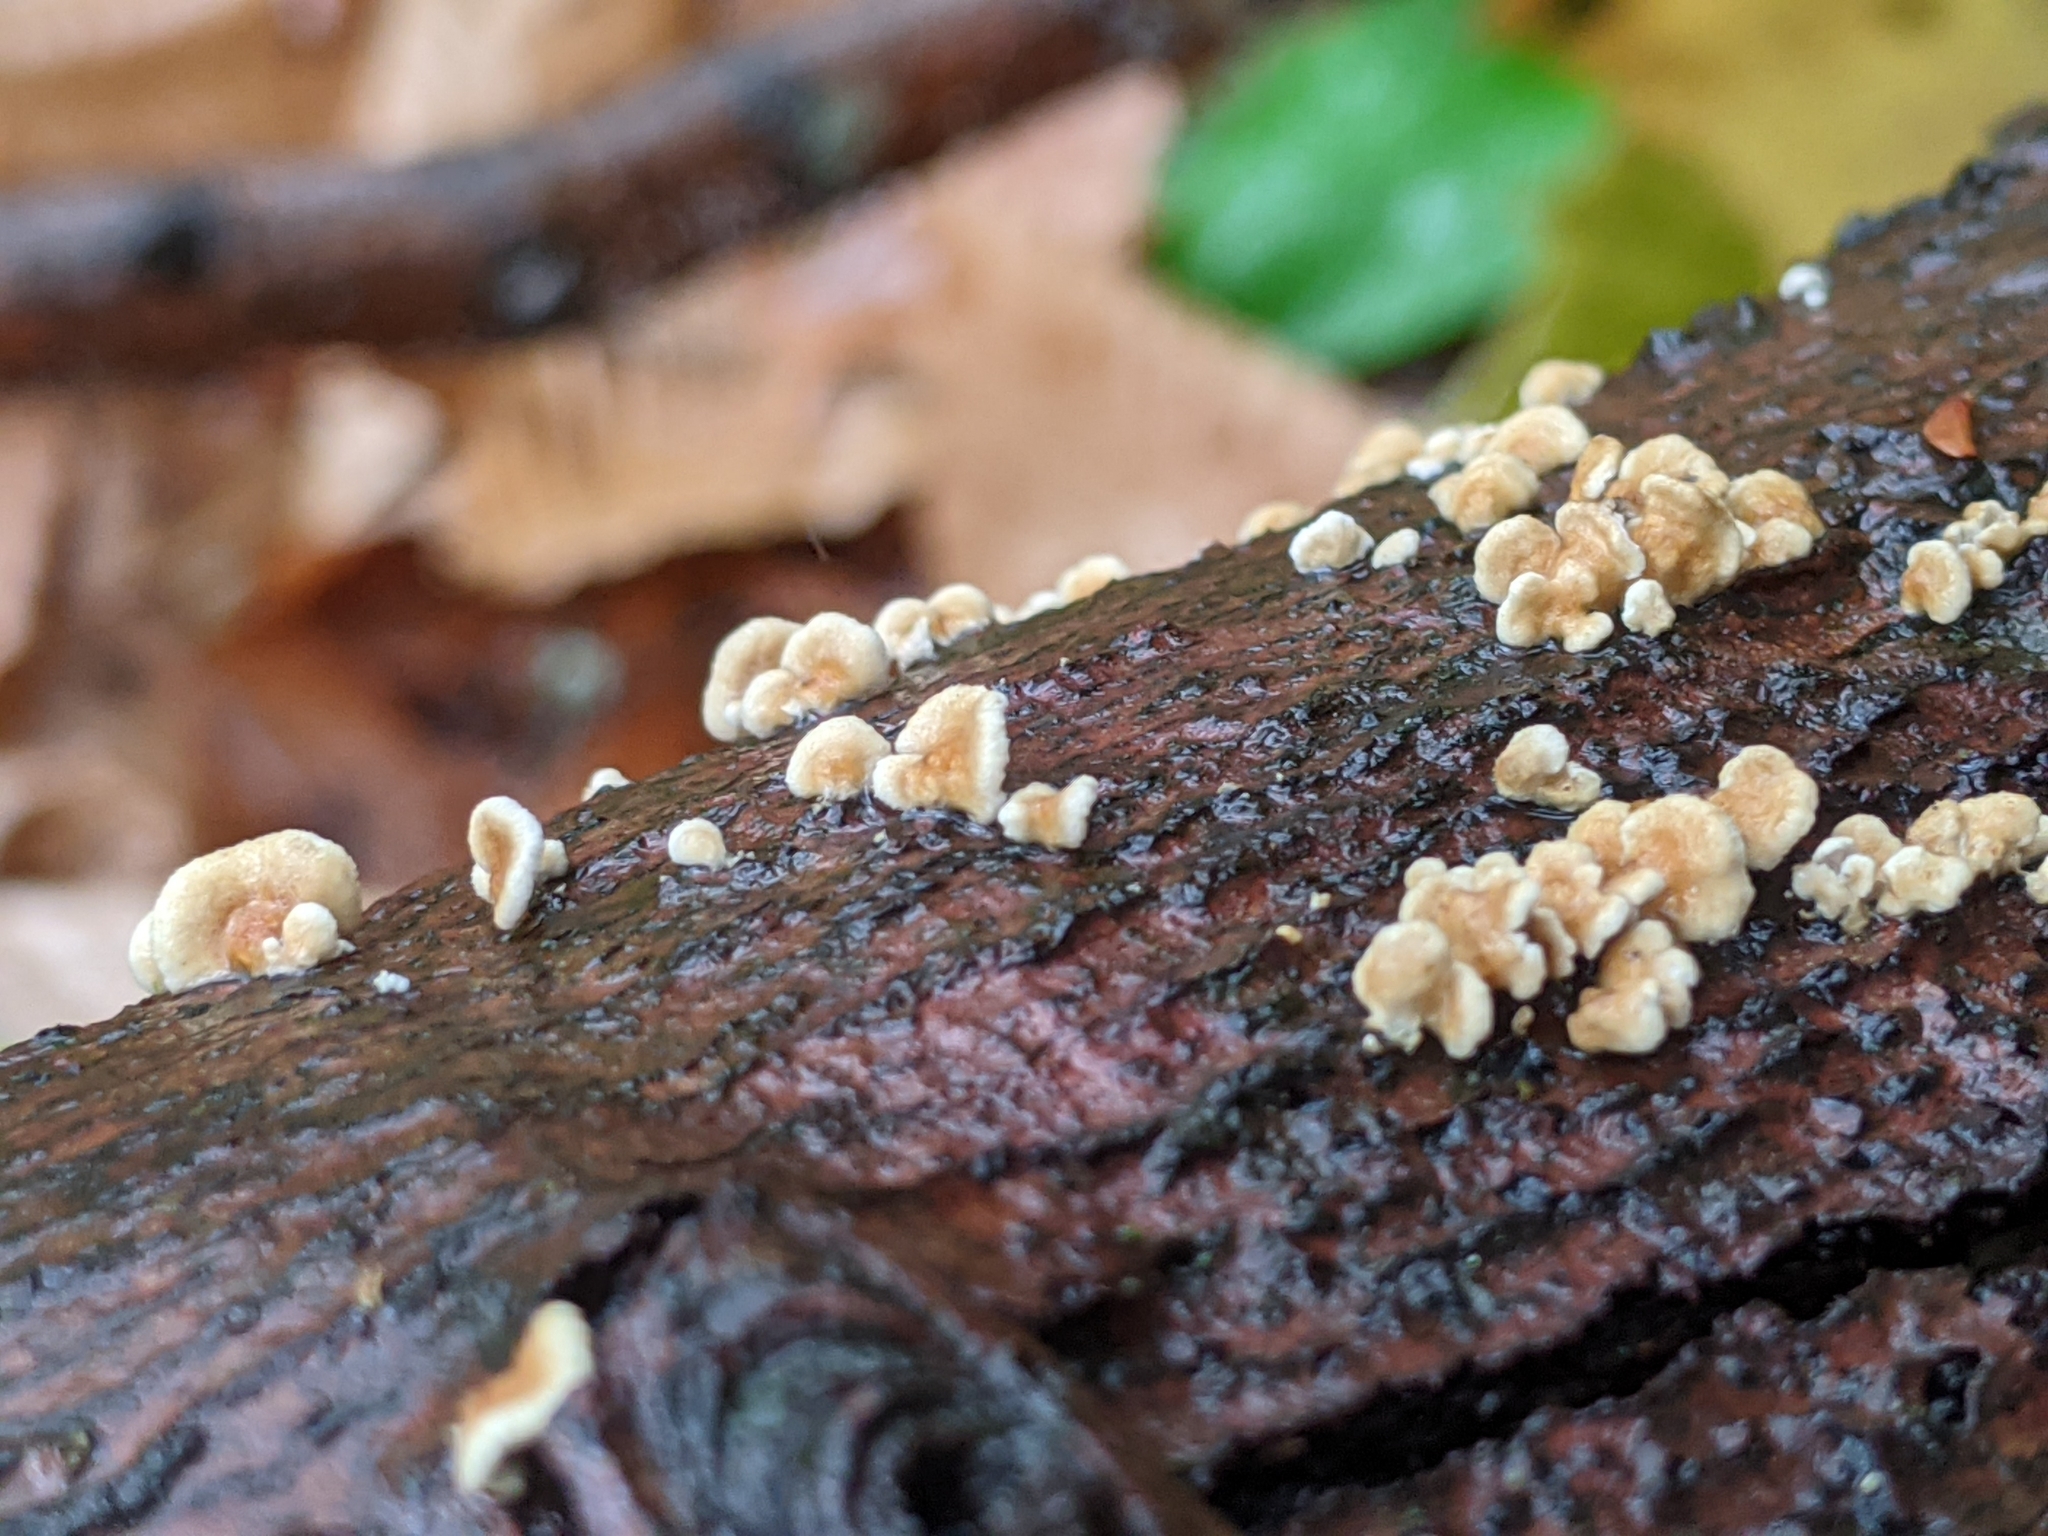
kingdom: Fungi
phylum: Basidiomycota
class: Agaricomycetes
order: Amylocorticiales
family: Amylocorticiaceae
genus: Plicaturopsis
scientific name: Plicaturopsis crispa
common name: Crimped gill
